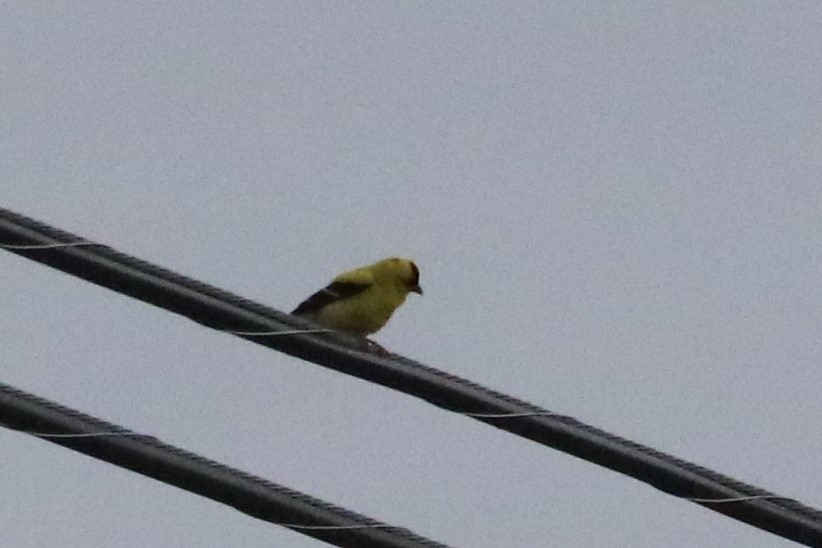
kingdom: Animalia
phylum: Chordata
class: Aves
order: Passeriformes
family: Fringillidae
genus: Spinus
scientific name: Spinus tristis
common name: American goldfinch
